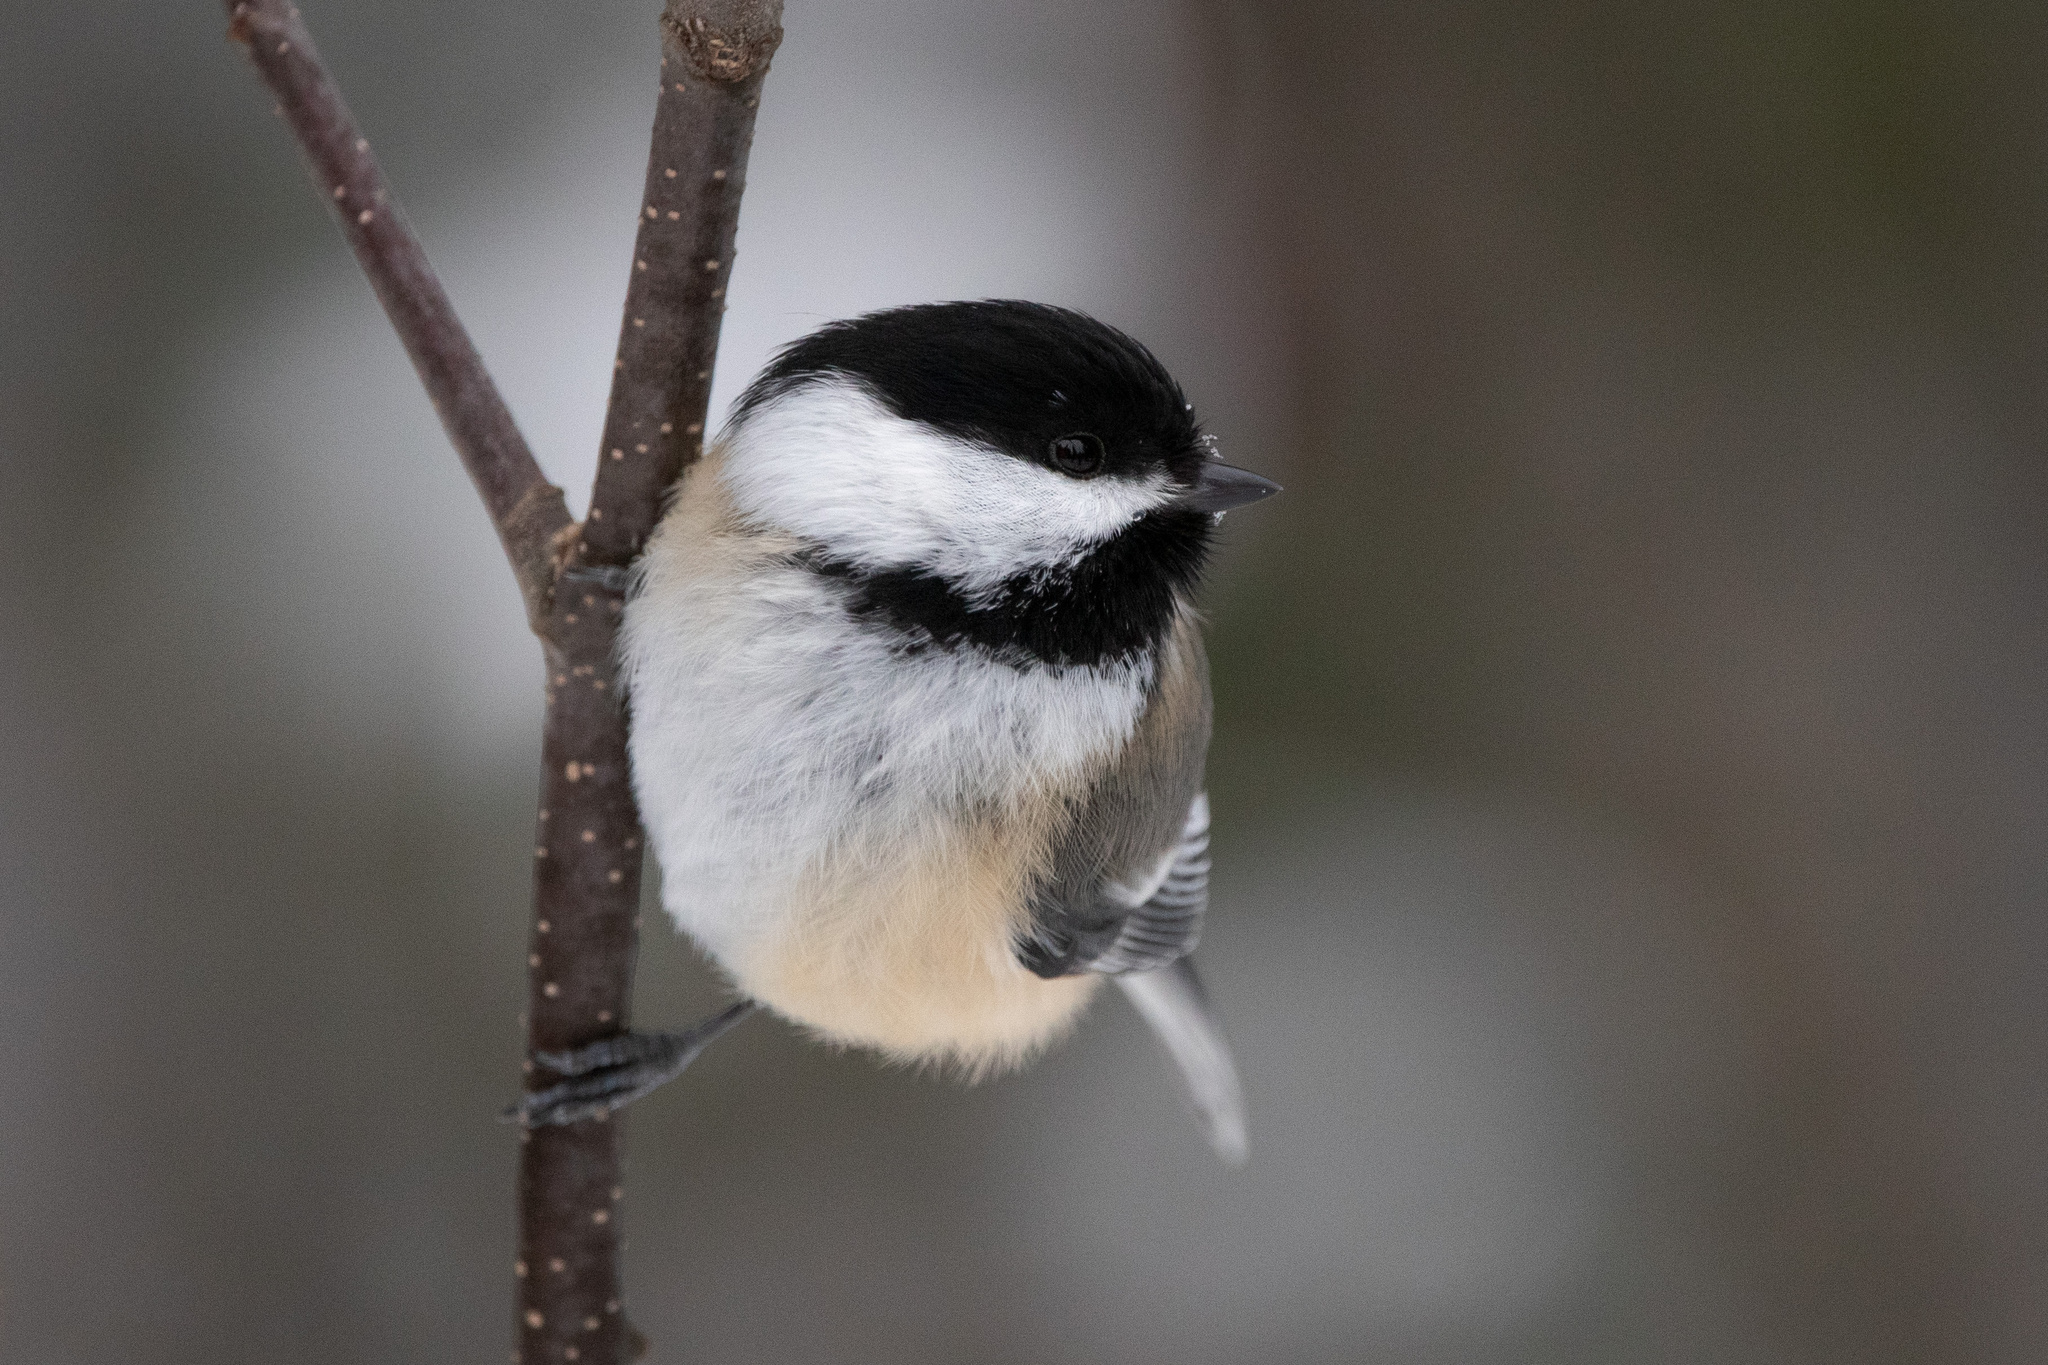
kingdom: Animalia
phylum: Chordata
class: Aves
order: Passeriformes
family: Paridae
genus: Poecile
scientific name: Poecile atricapillus
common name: Black-capped chickadee
